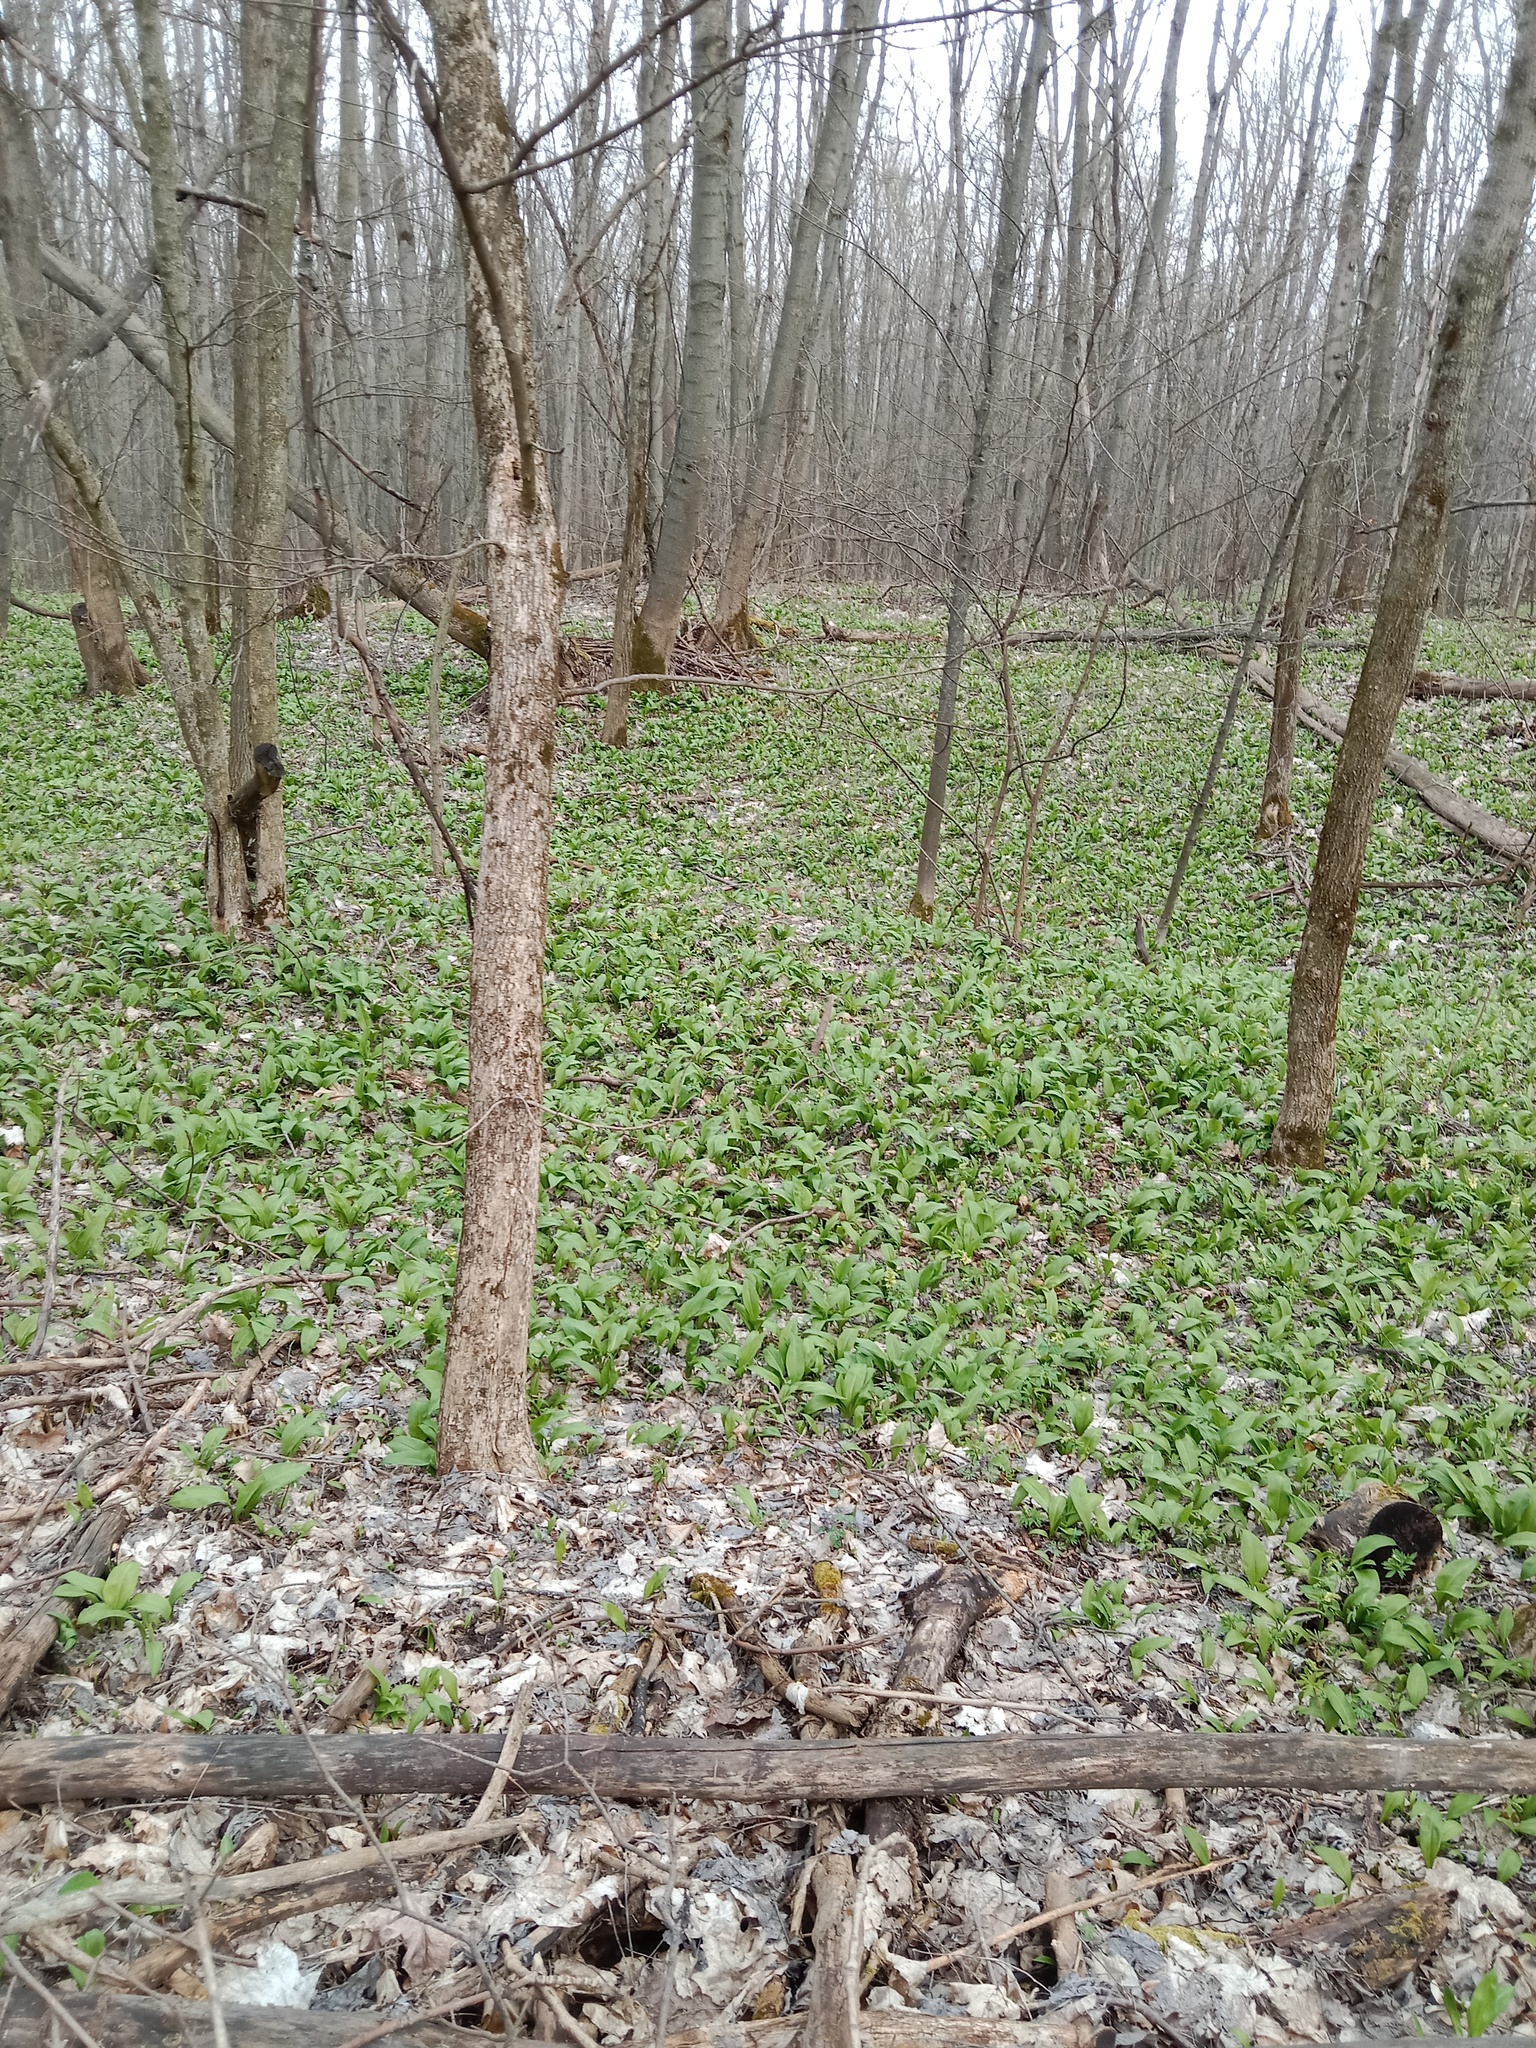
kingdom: Plantae
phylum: Tracheophyta
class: Liliopsida
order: Asparagales
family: Amaryllidaceae
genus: Allium
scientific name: Allium ursinum
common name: Ramsons
